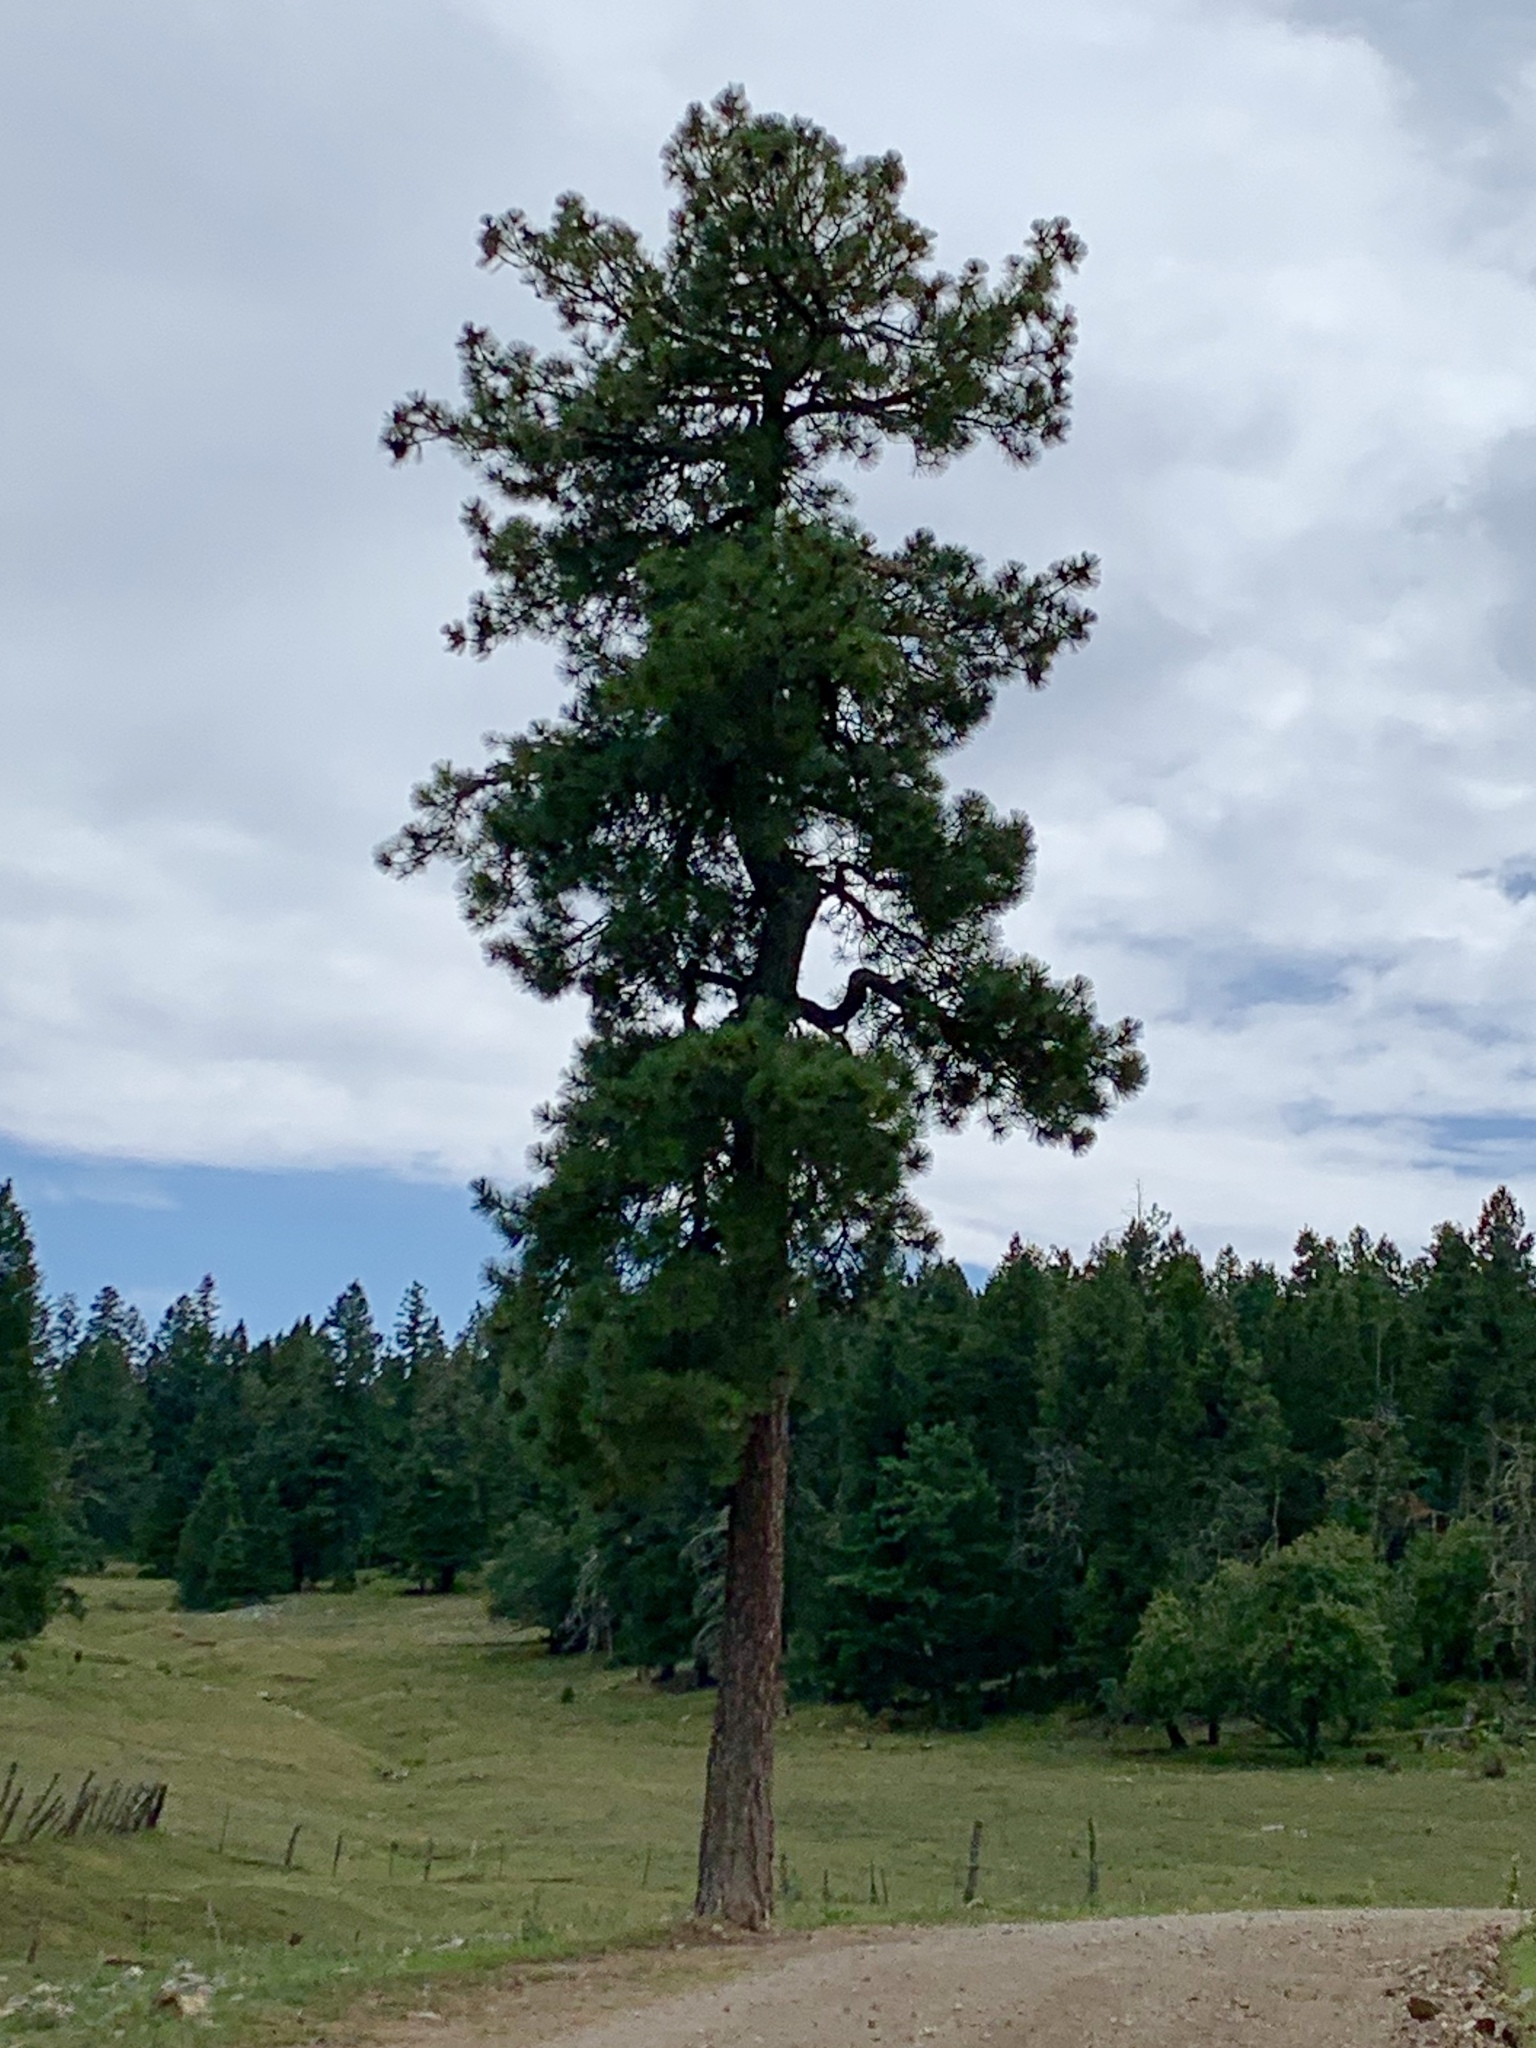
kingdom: Plantae
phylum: Tracheophyta
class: Pinopsida
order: Pinales
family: Pinaceae
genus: Pinus
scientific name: Pinus ponderosa
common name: Western yellow-pine
